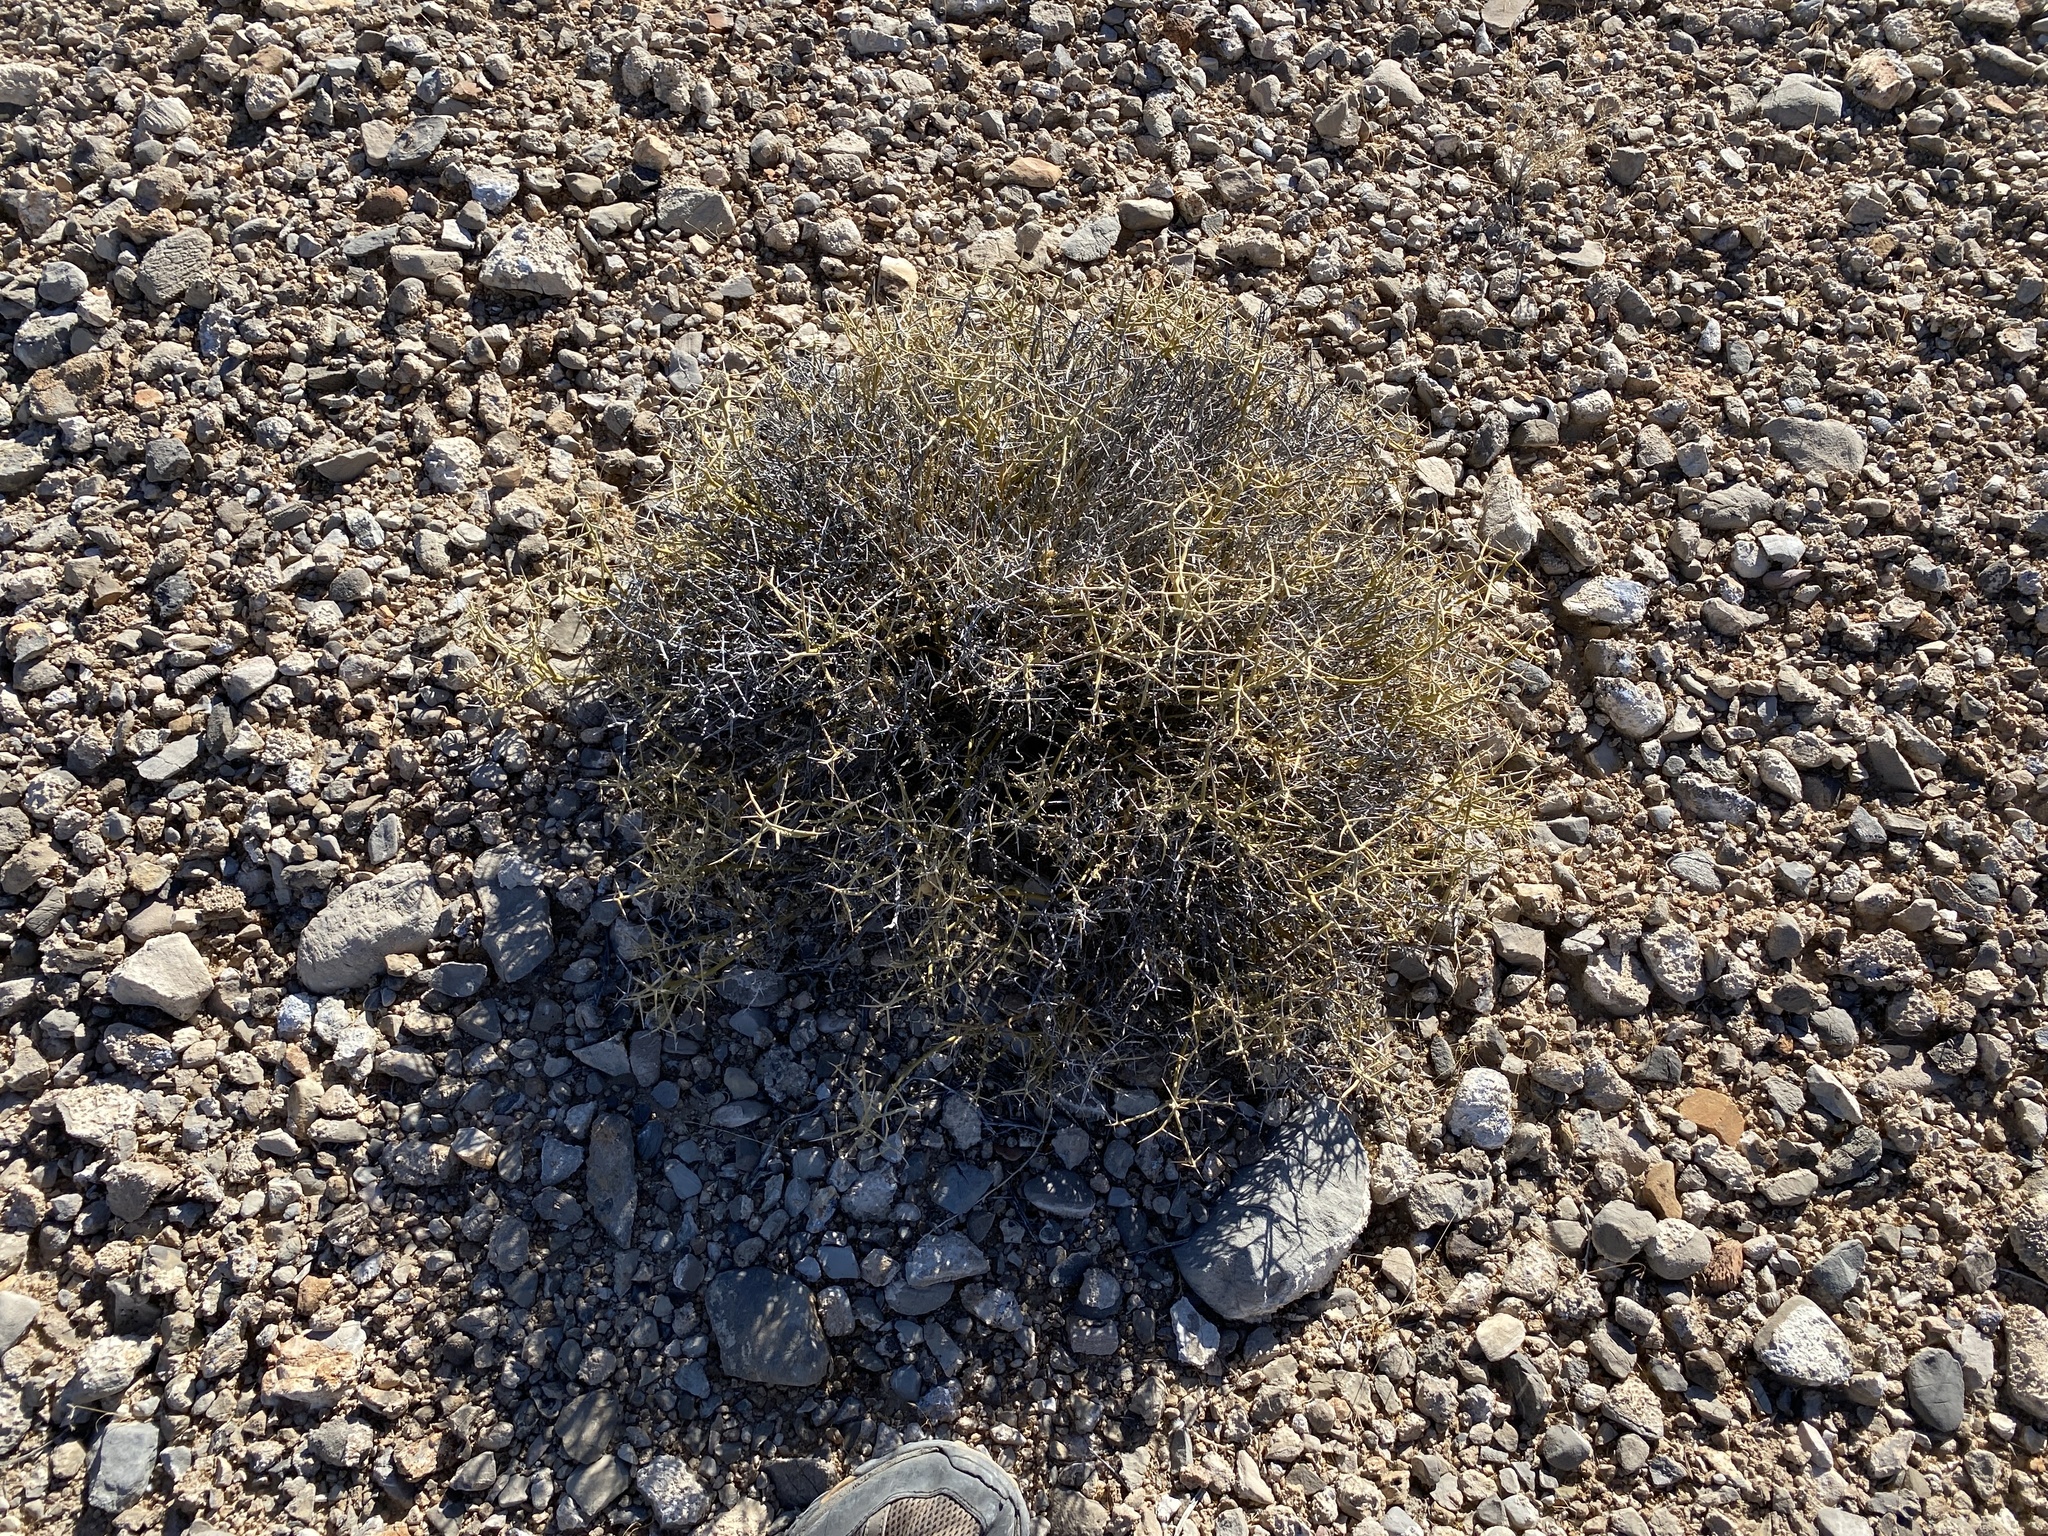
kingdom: Plantae
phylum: Tracheophyta
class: Magnoliopsida
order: Lamiales
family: Oleaceae
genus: Menodora
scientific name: Menodora spinescens
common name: Spiny menodora
